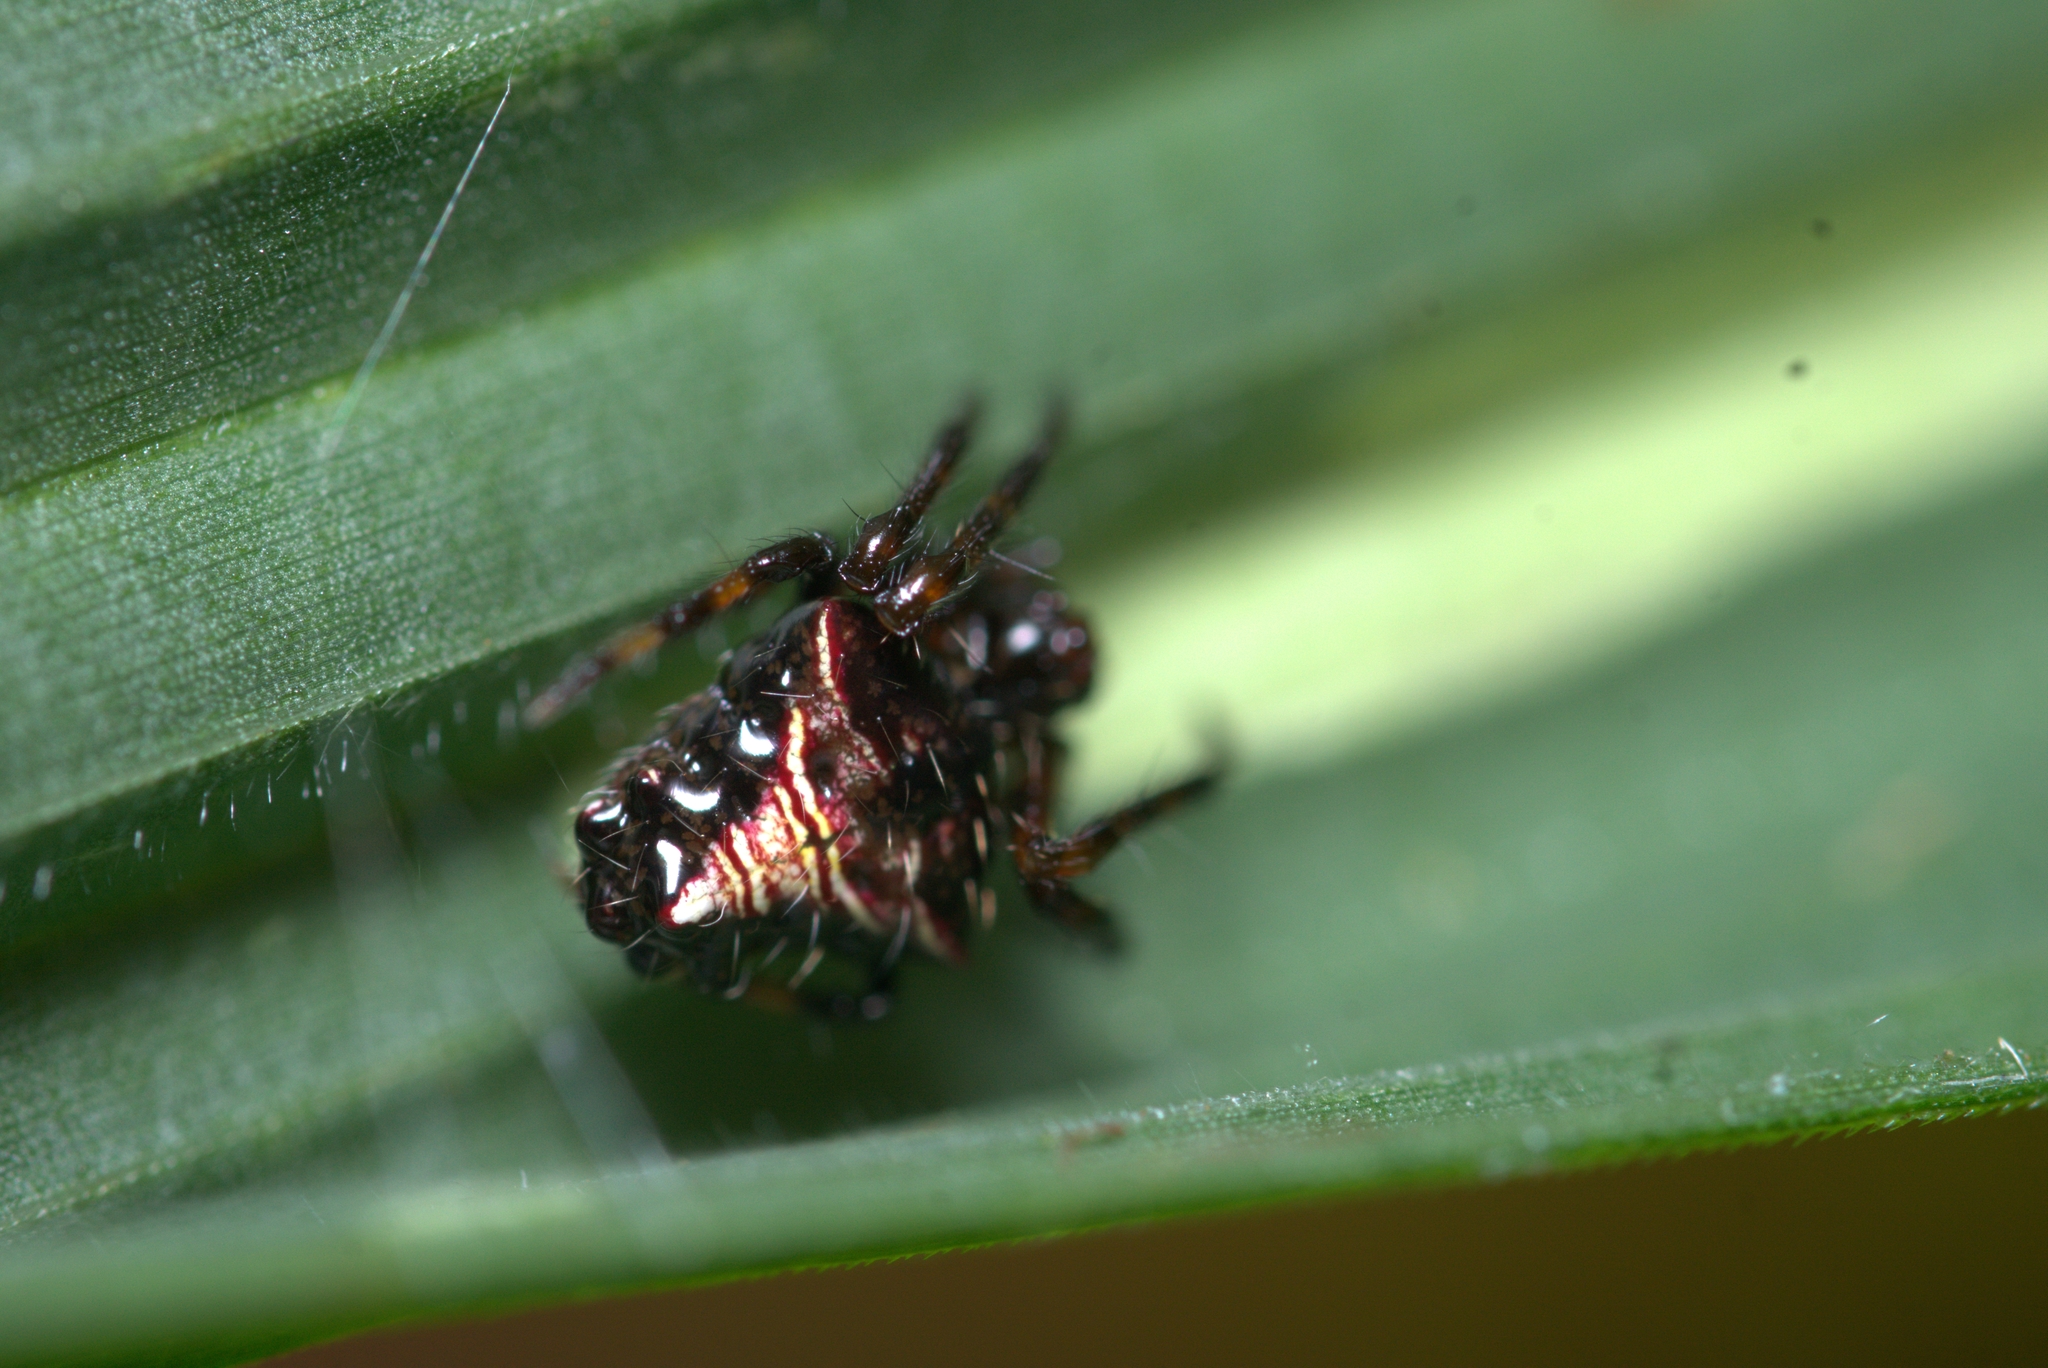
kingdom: Animalia
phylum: Arthropoda
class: Arachnida
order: Araneae
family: Araneidae
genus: Verrucosa
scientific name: Verrucosa meridionalis
